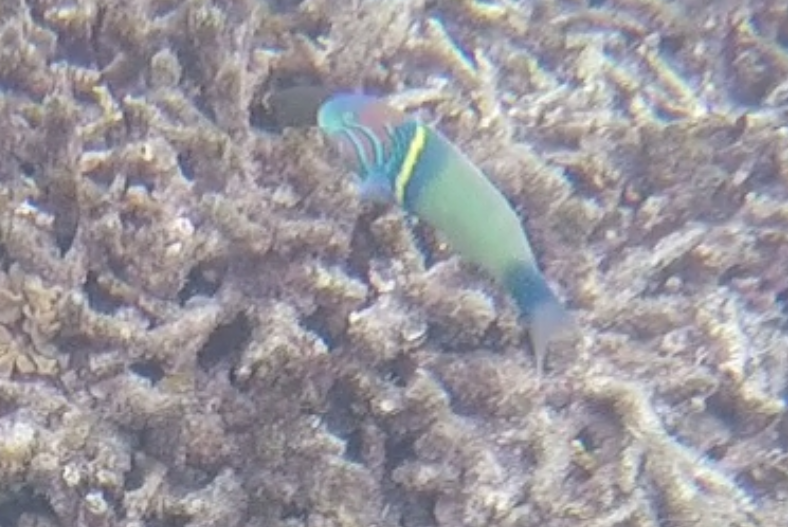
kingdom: Animalia
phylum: Chordata
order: Perciformes
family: Labridae
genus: Thalassoma
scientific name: Thalassoma hebraicum
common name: Goldbar wrasse
